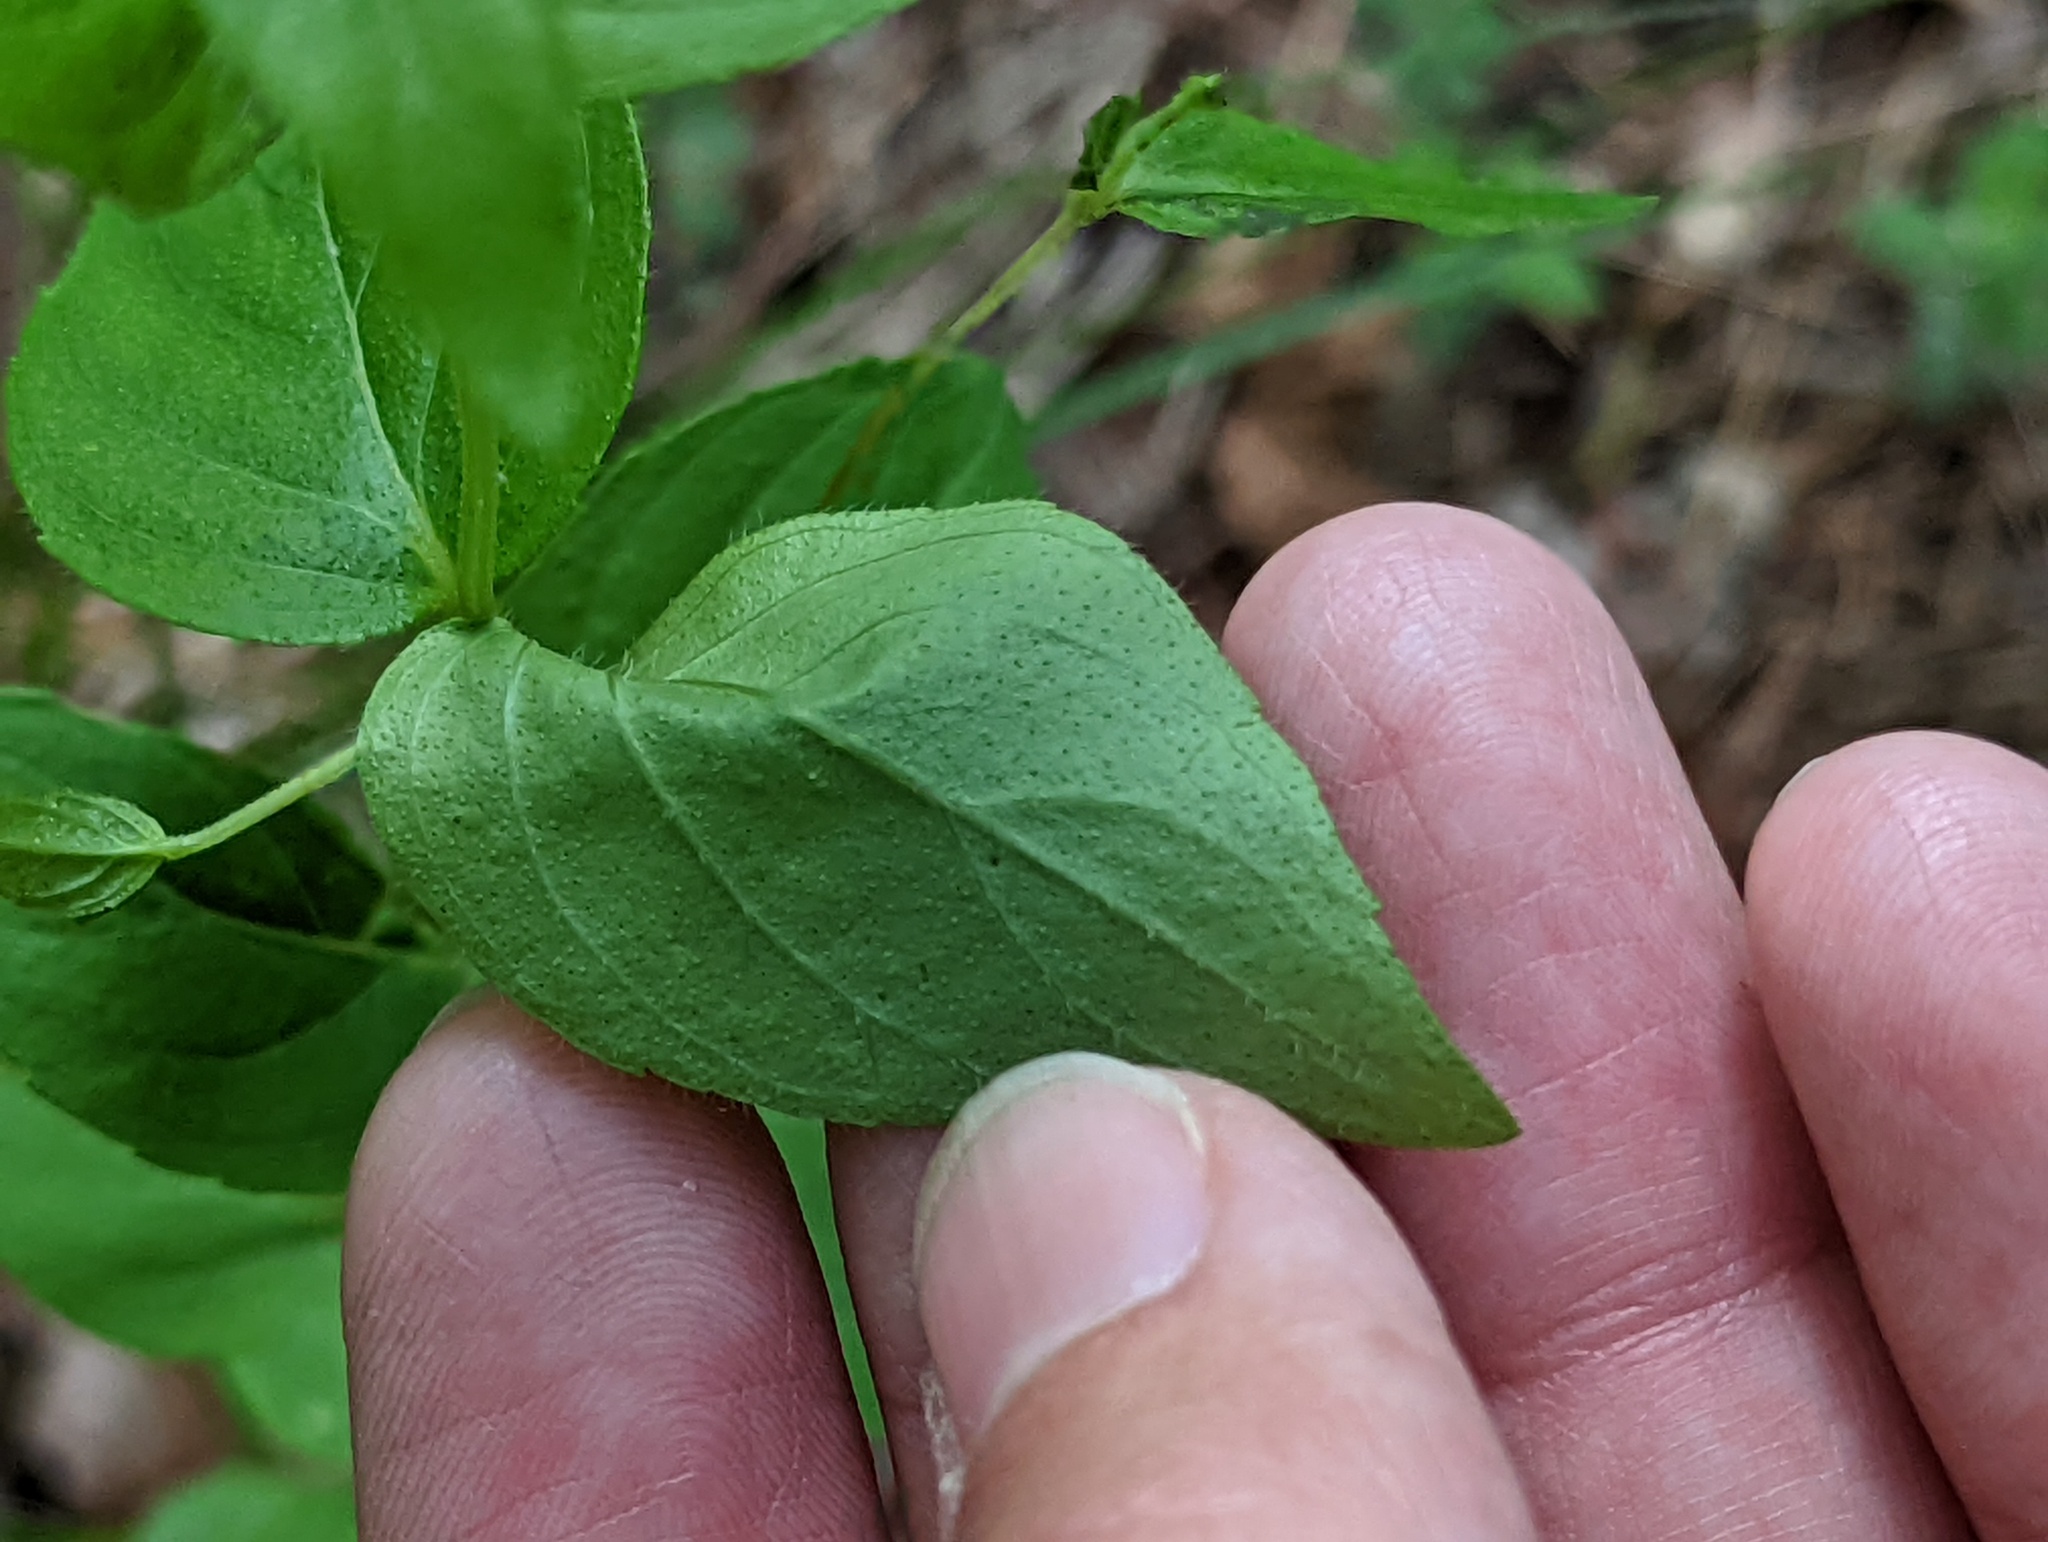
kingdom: Plantae
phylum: Tracheophyta
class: Magnoliopsida
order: Lamiales
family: Lamiaceae
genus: Cunila
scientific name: Cunila origanoides
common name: American dittany
